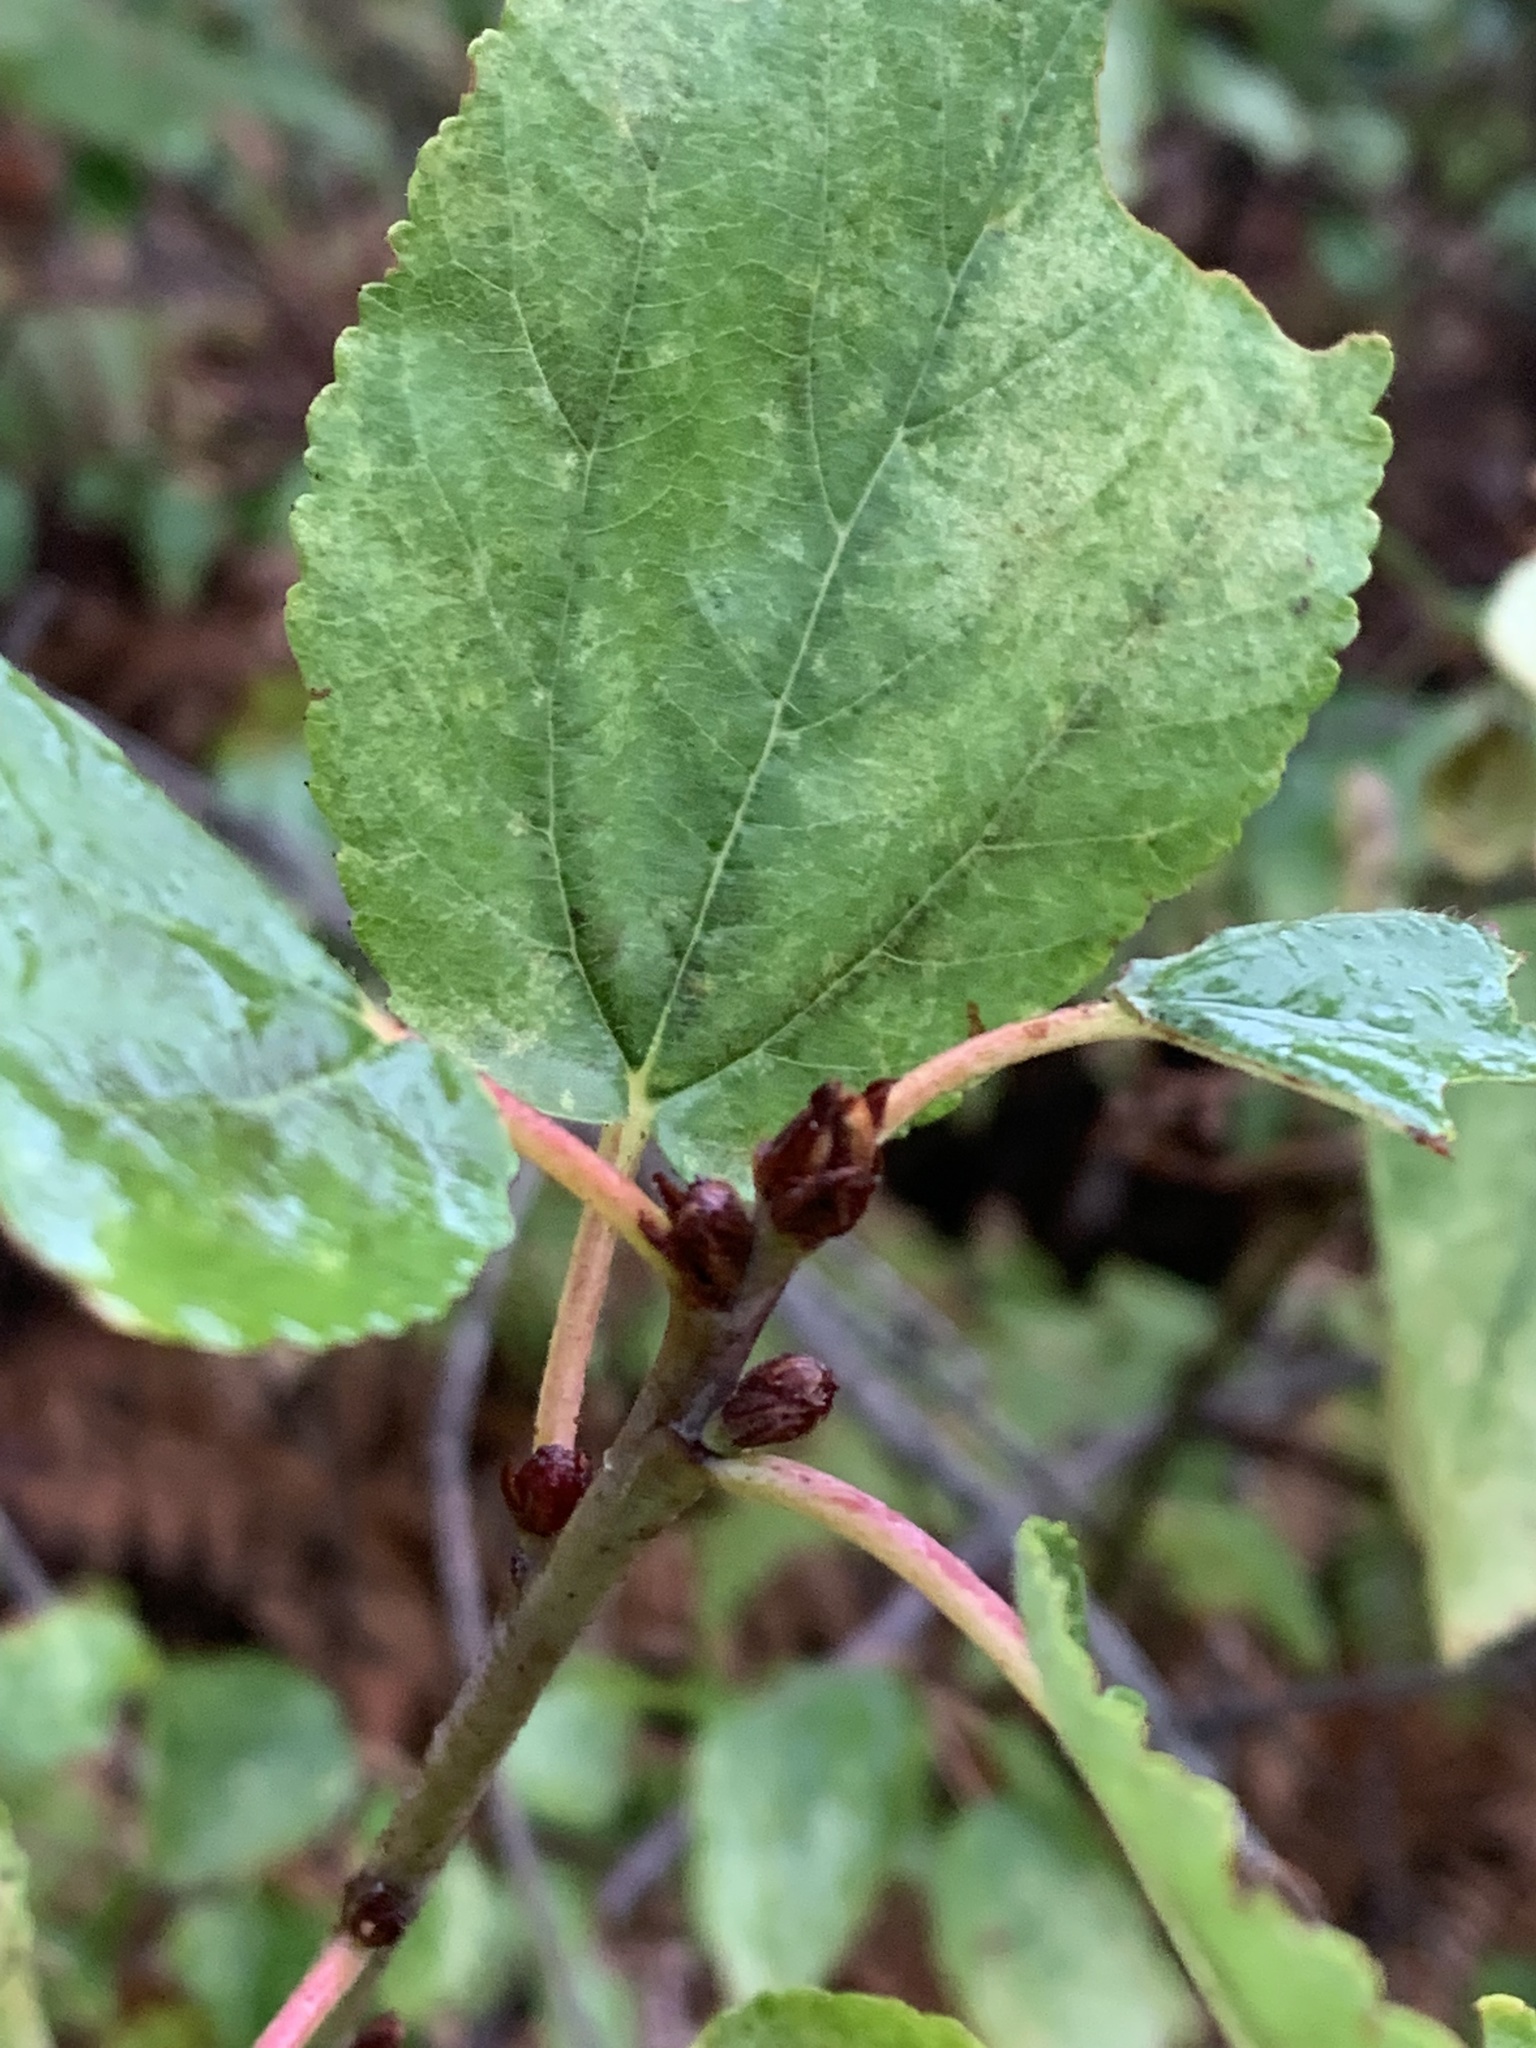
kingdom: Plantae
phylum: Tracheophyta
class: Magnoliopsida
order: Rosales
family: Rhamnaceae
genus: Ceanothus
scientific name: Ceanothus sanguineus
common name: Teatree
